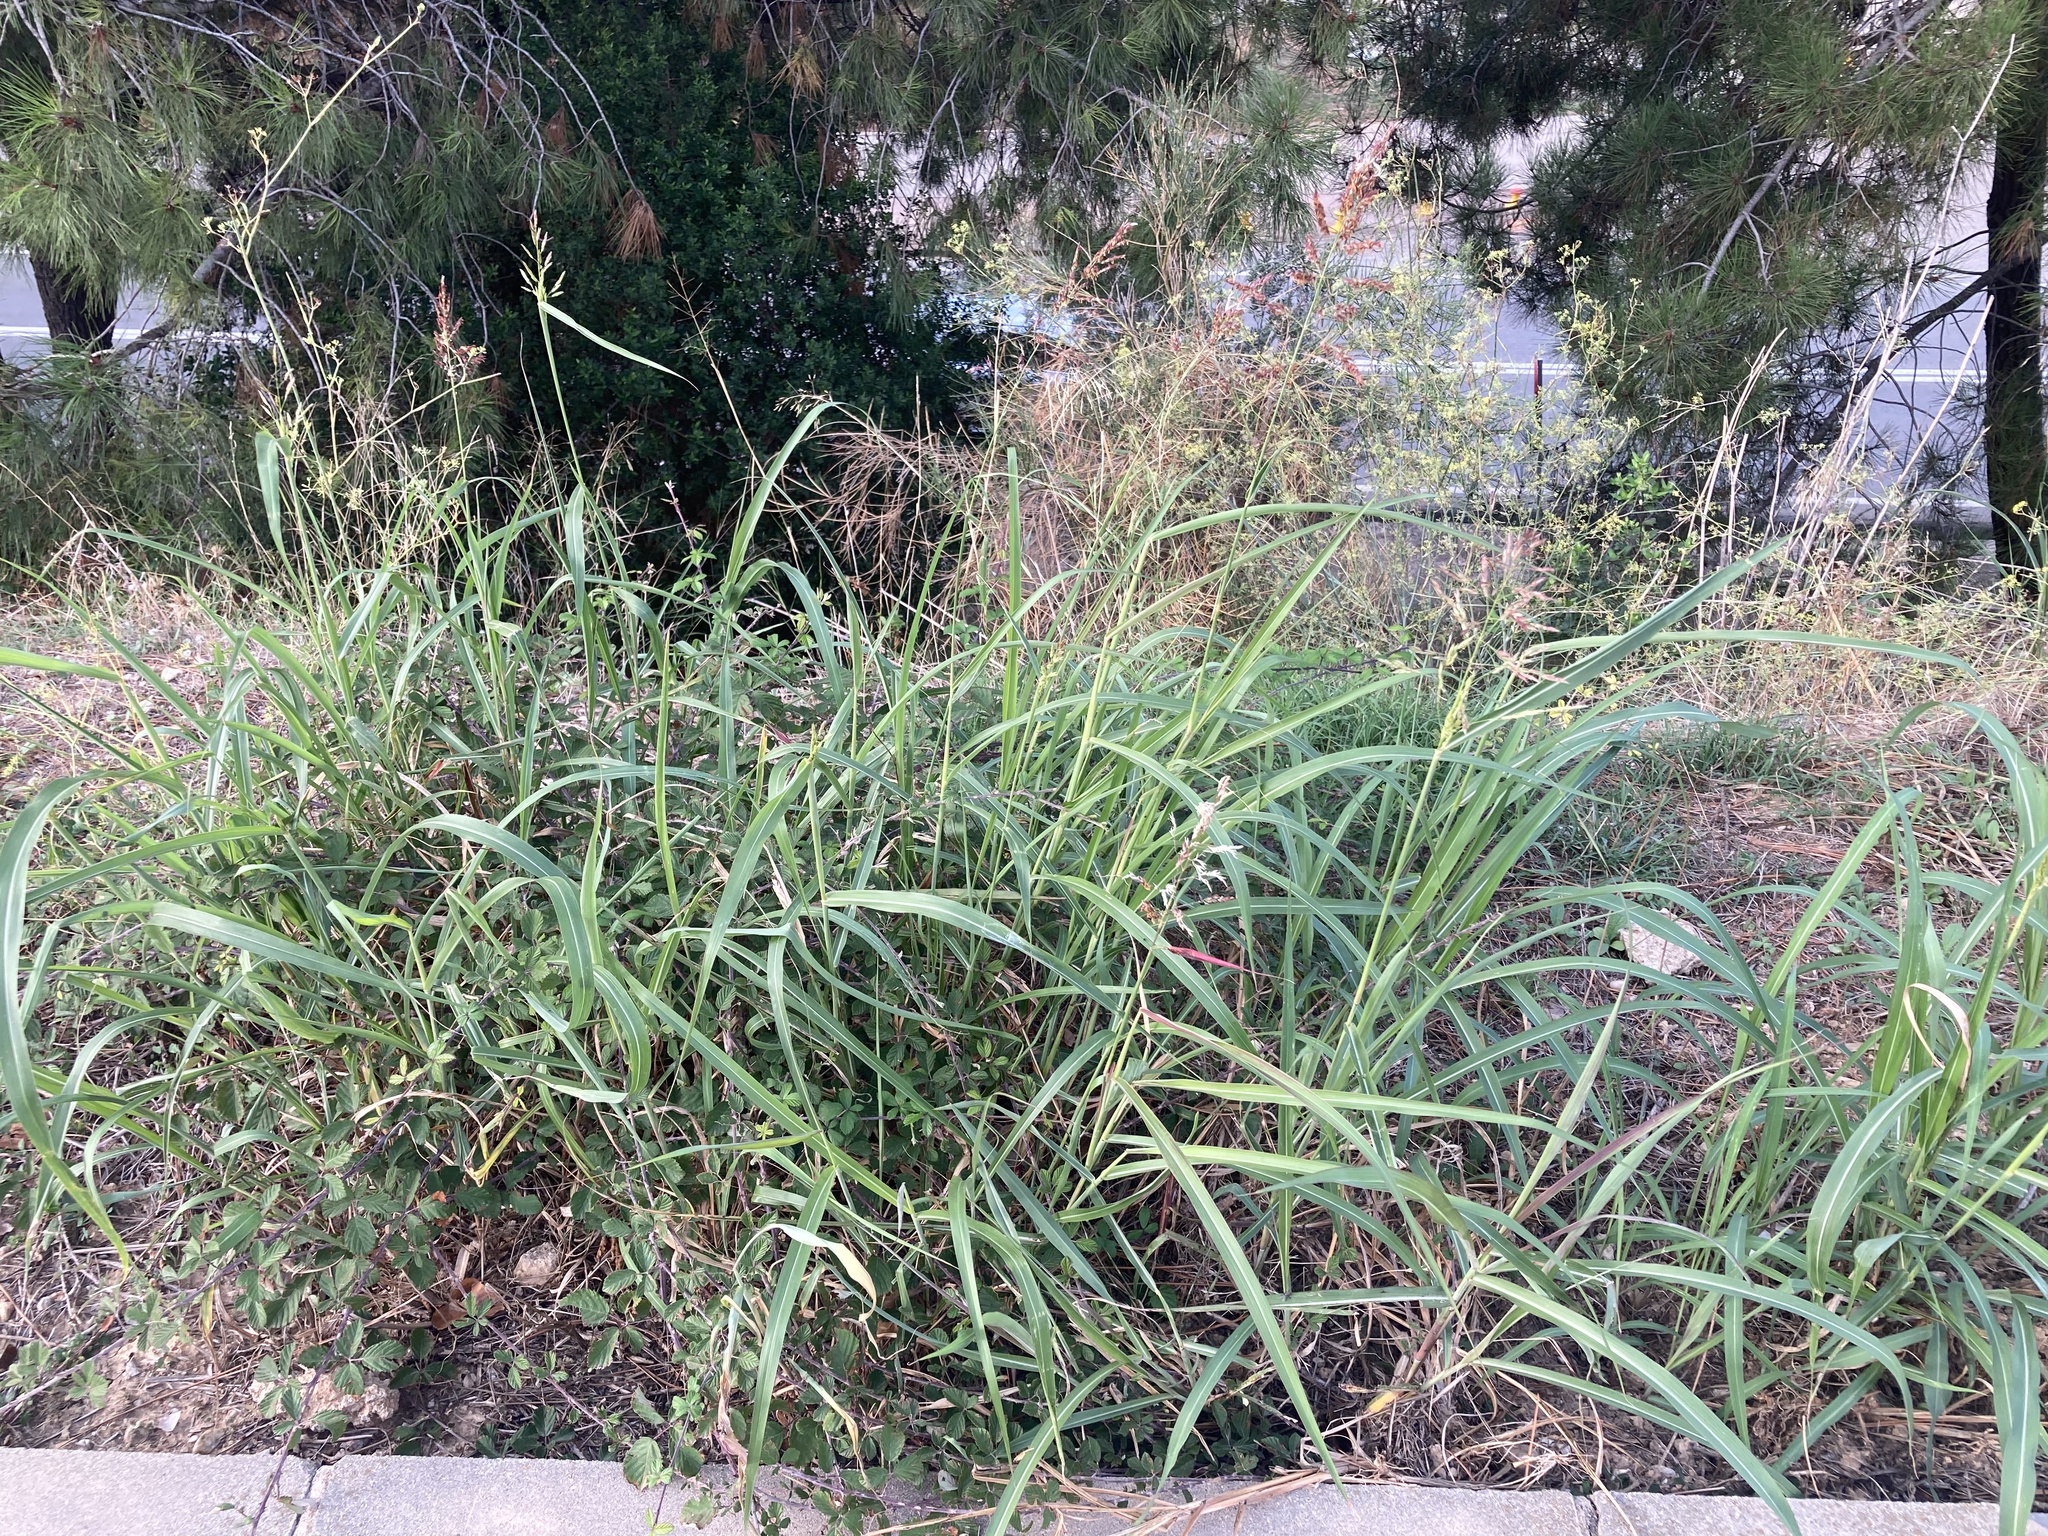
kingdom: Plantae
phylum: Tracheophyta
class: Liliopsida
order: Poales
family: Poaceae
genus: Sorghum
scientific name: Sorghum halepense
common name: Johnson-grass
